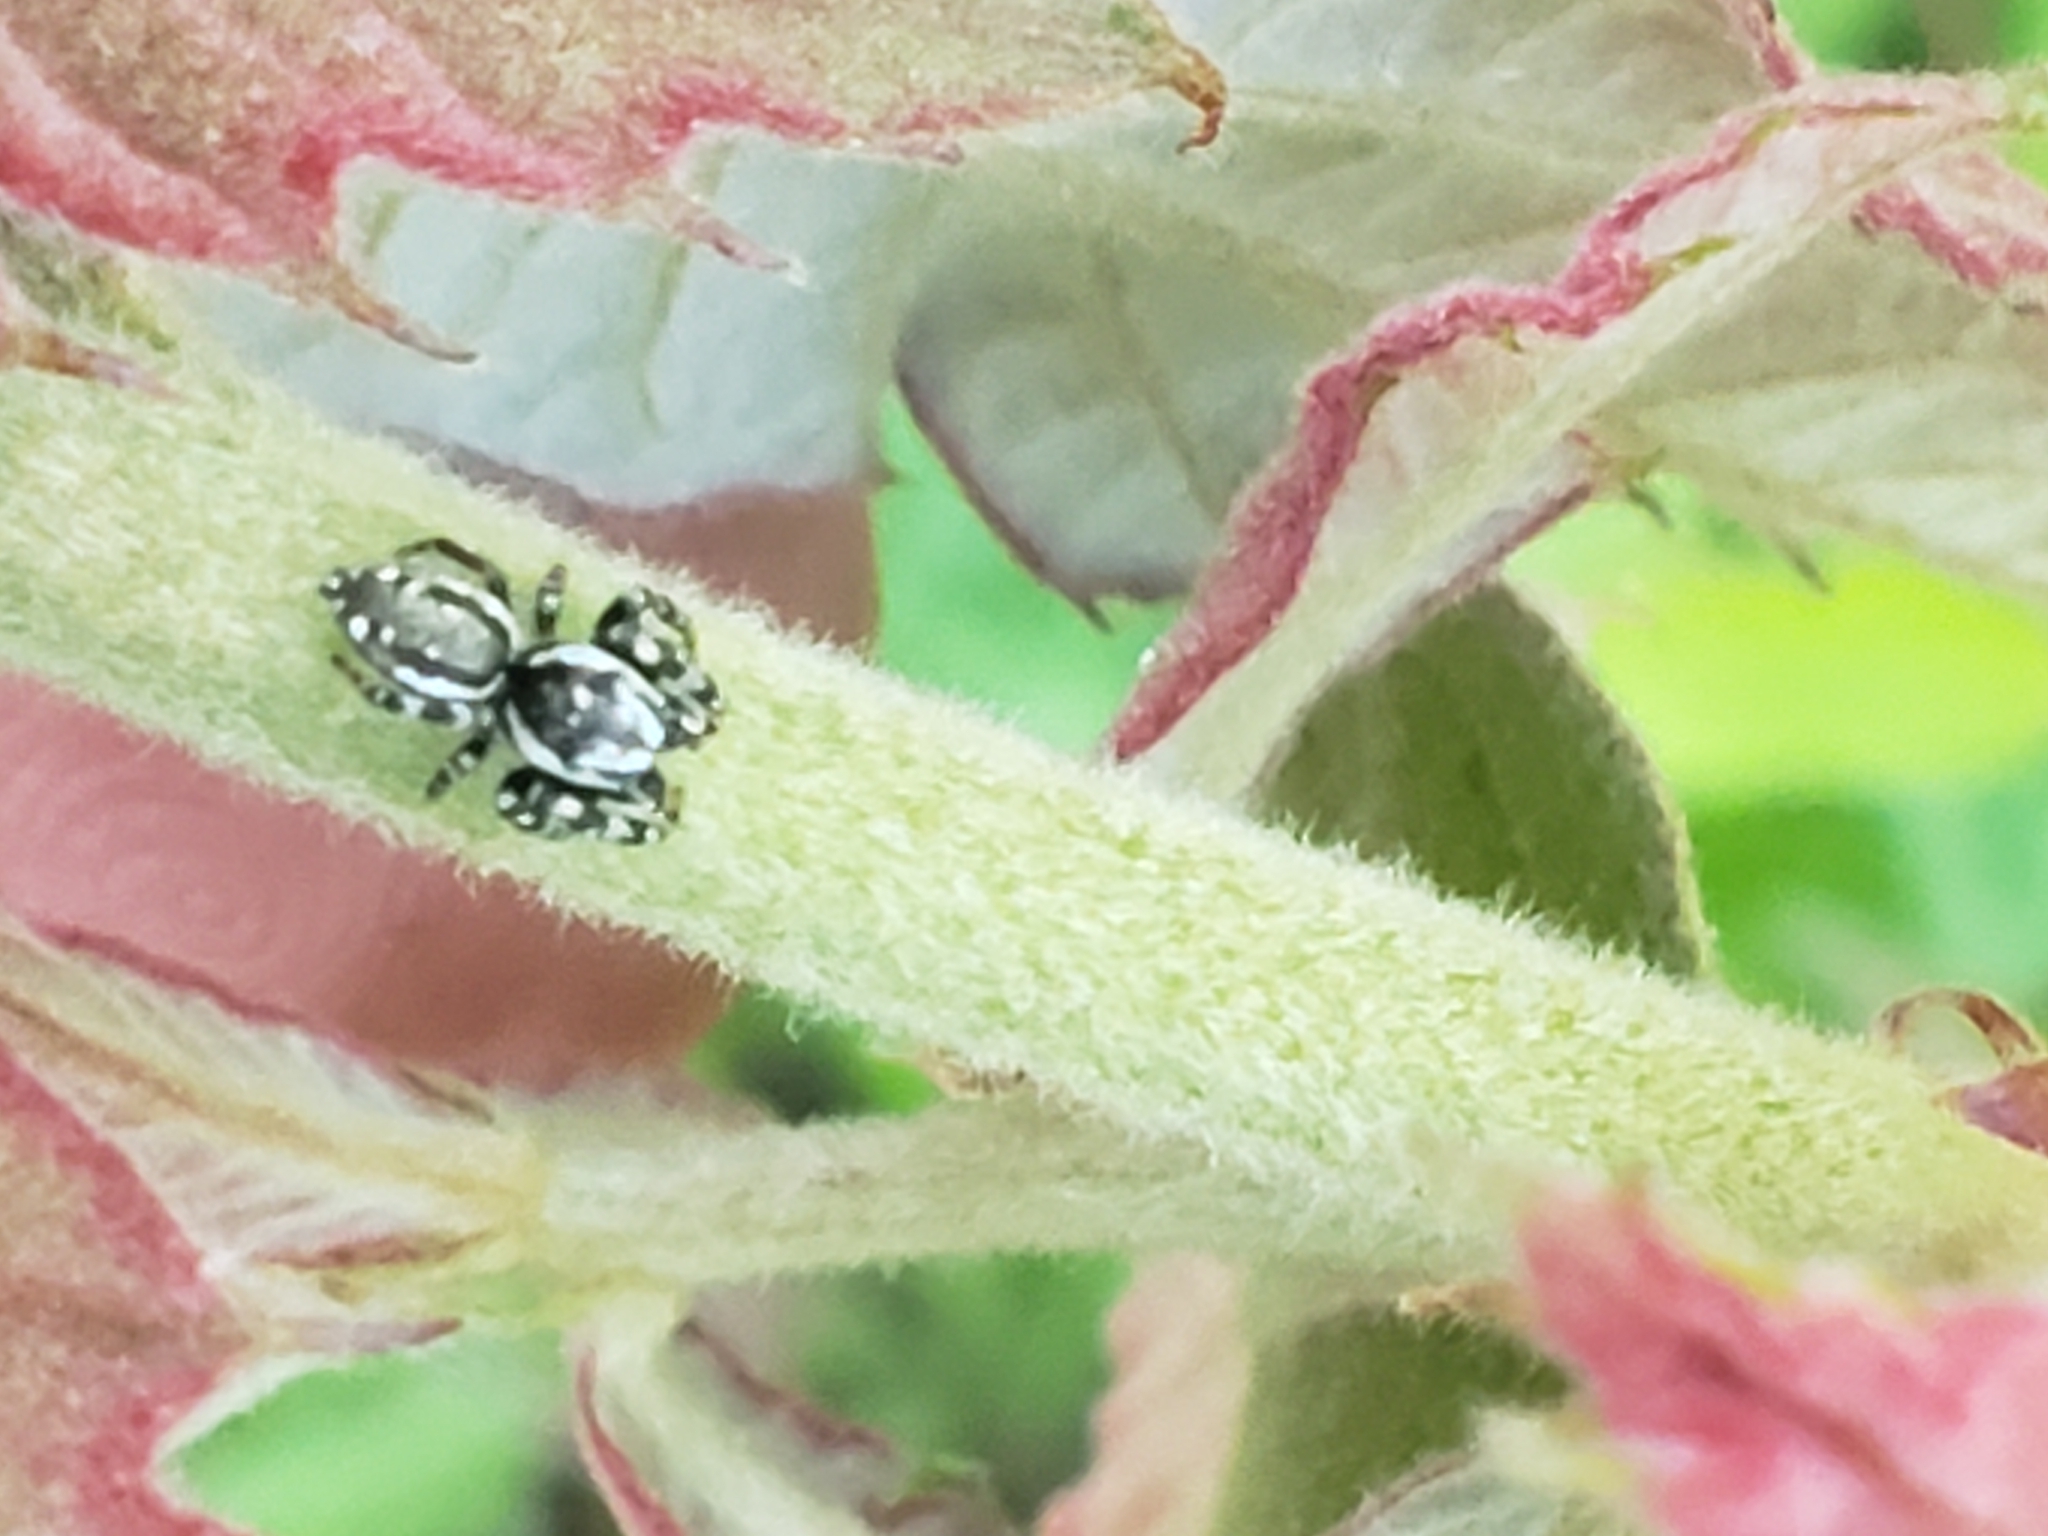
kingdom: Animalia
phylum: Arthropoda
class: Arachnida
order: Araneae
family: Salticidae
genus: Pelegrina
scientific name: Pelegrina galathea
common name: Jumping spiders
